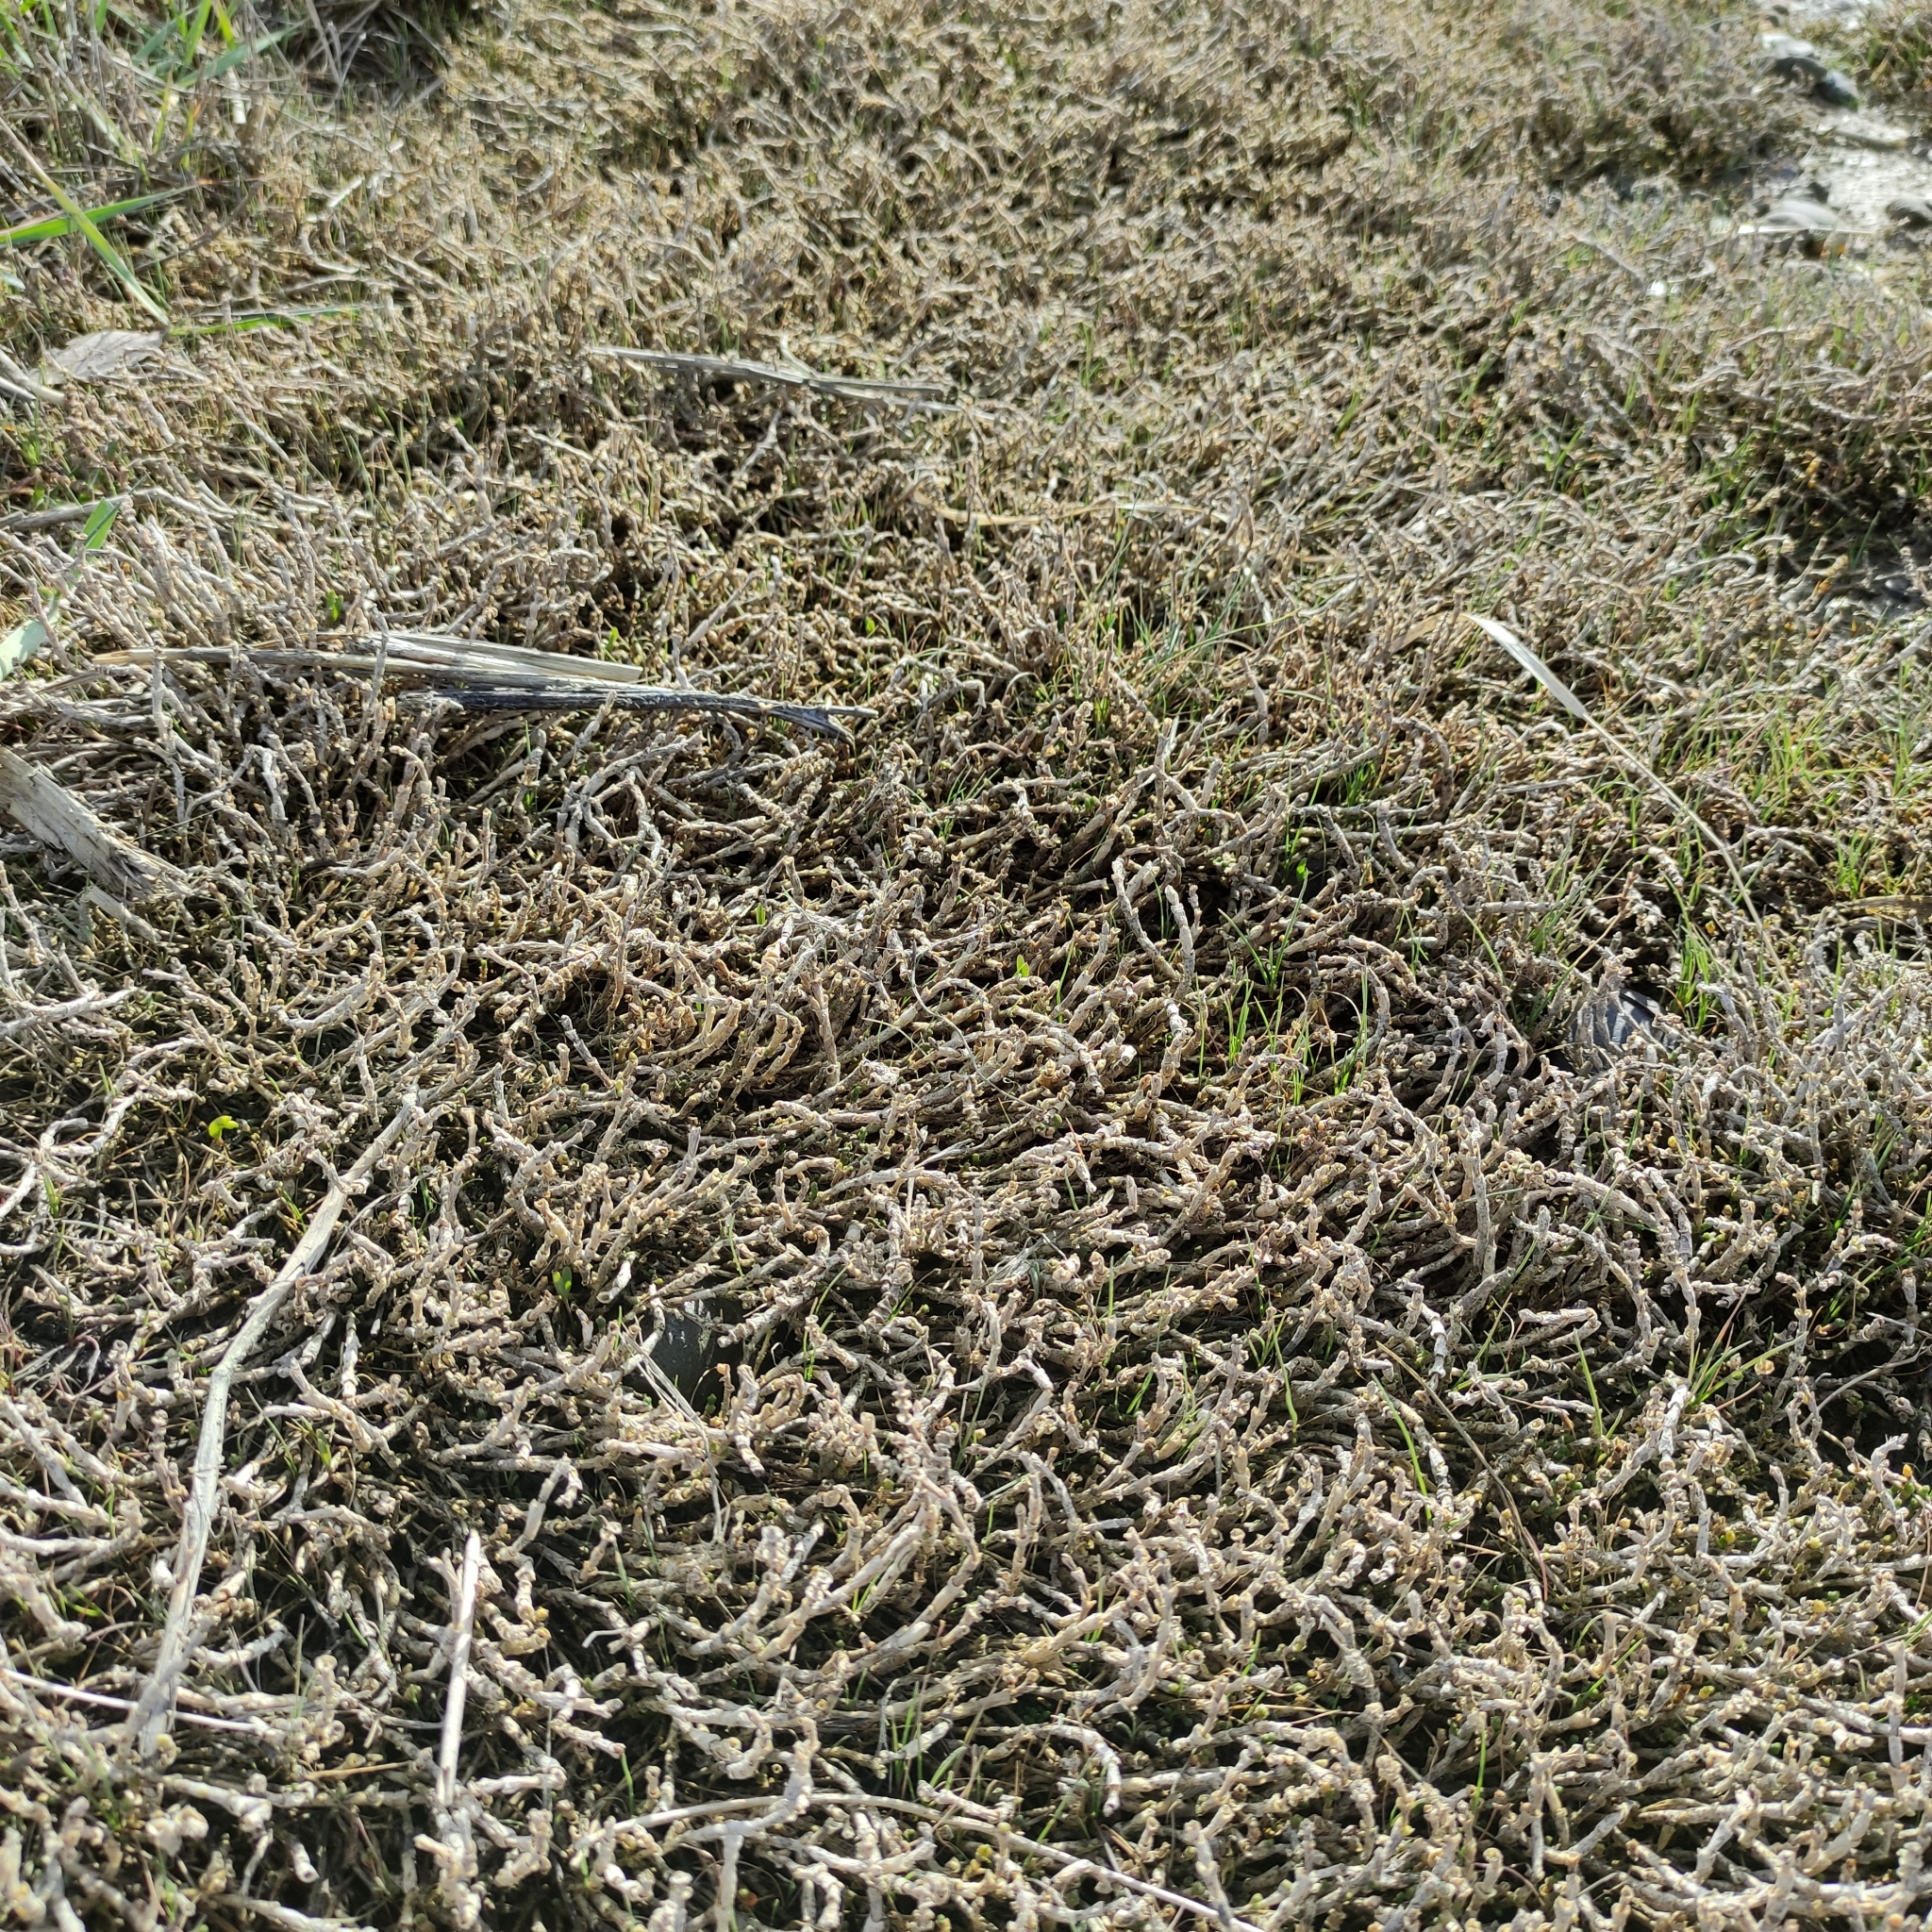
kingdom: Plantae
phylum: Tracheophyta
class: Magnoliopsida
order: Caryophyllales
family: Amaranthaceae
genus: Salicornia
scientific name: Salicornia quinqueflora
